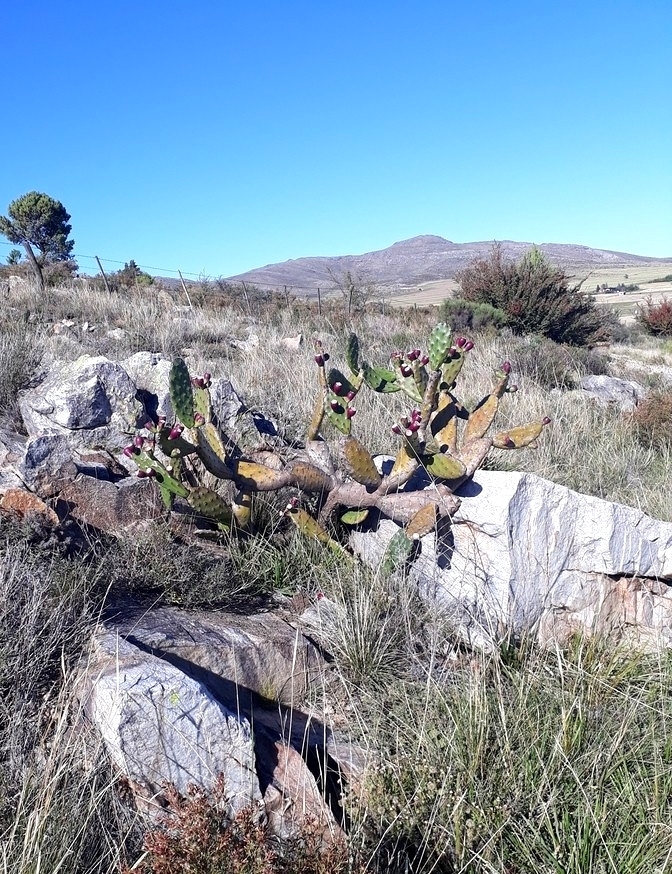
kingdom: Plantae
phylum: Tracheophyta
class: Magnoliopsida
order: Caryophyllales
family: Cactaceae
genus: Opuntia
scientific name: Opuntia elata
